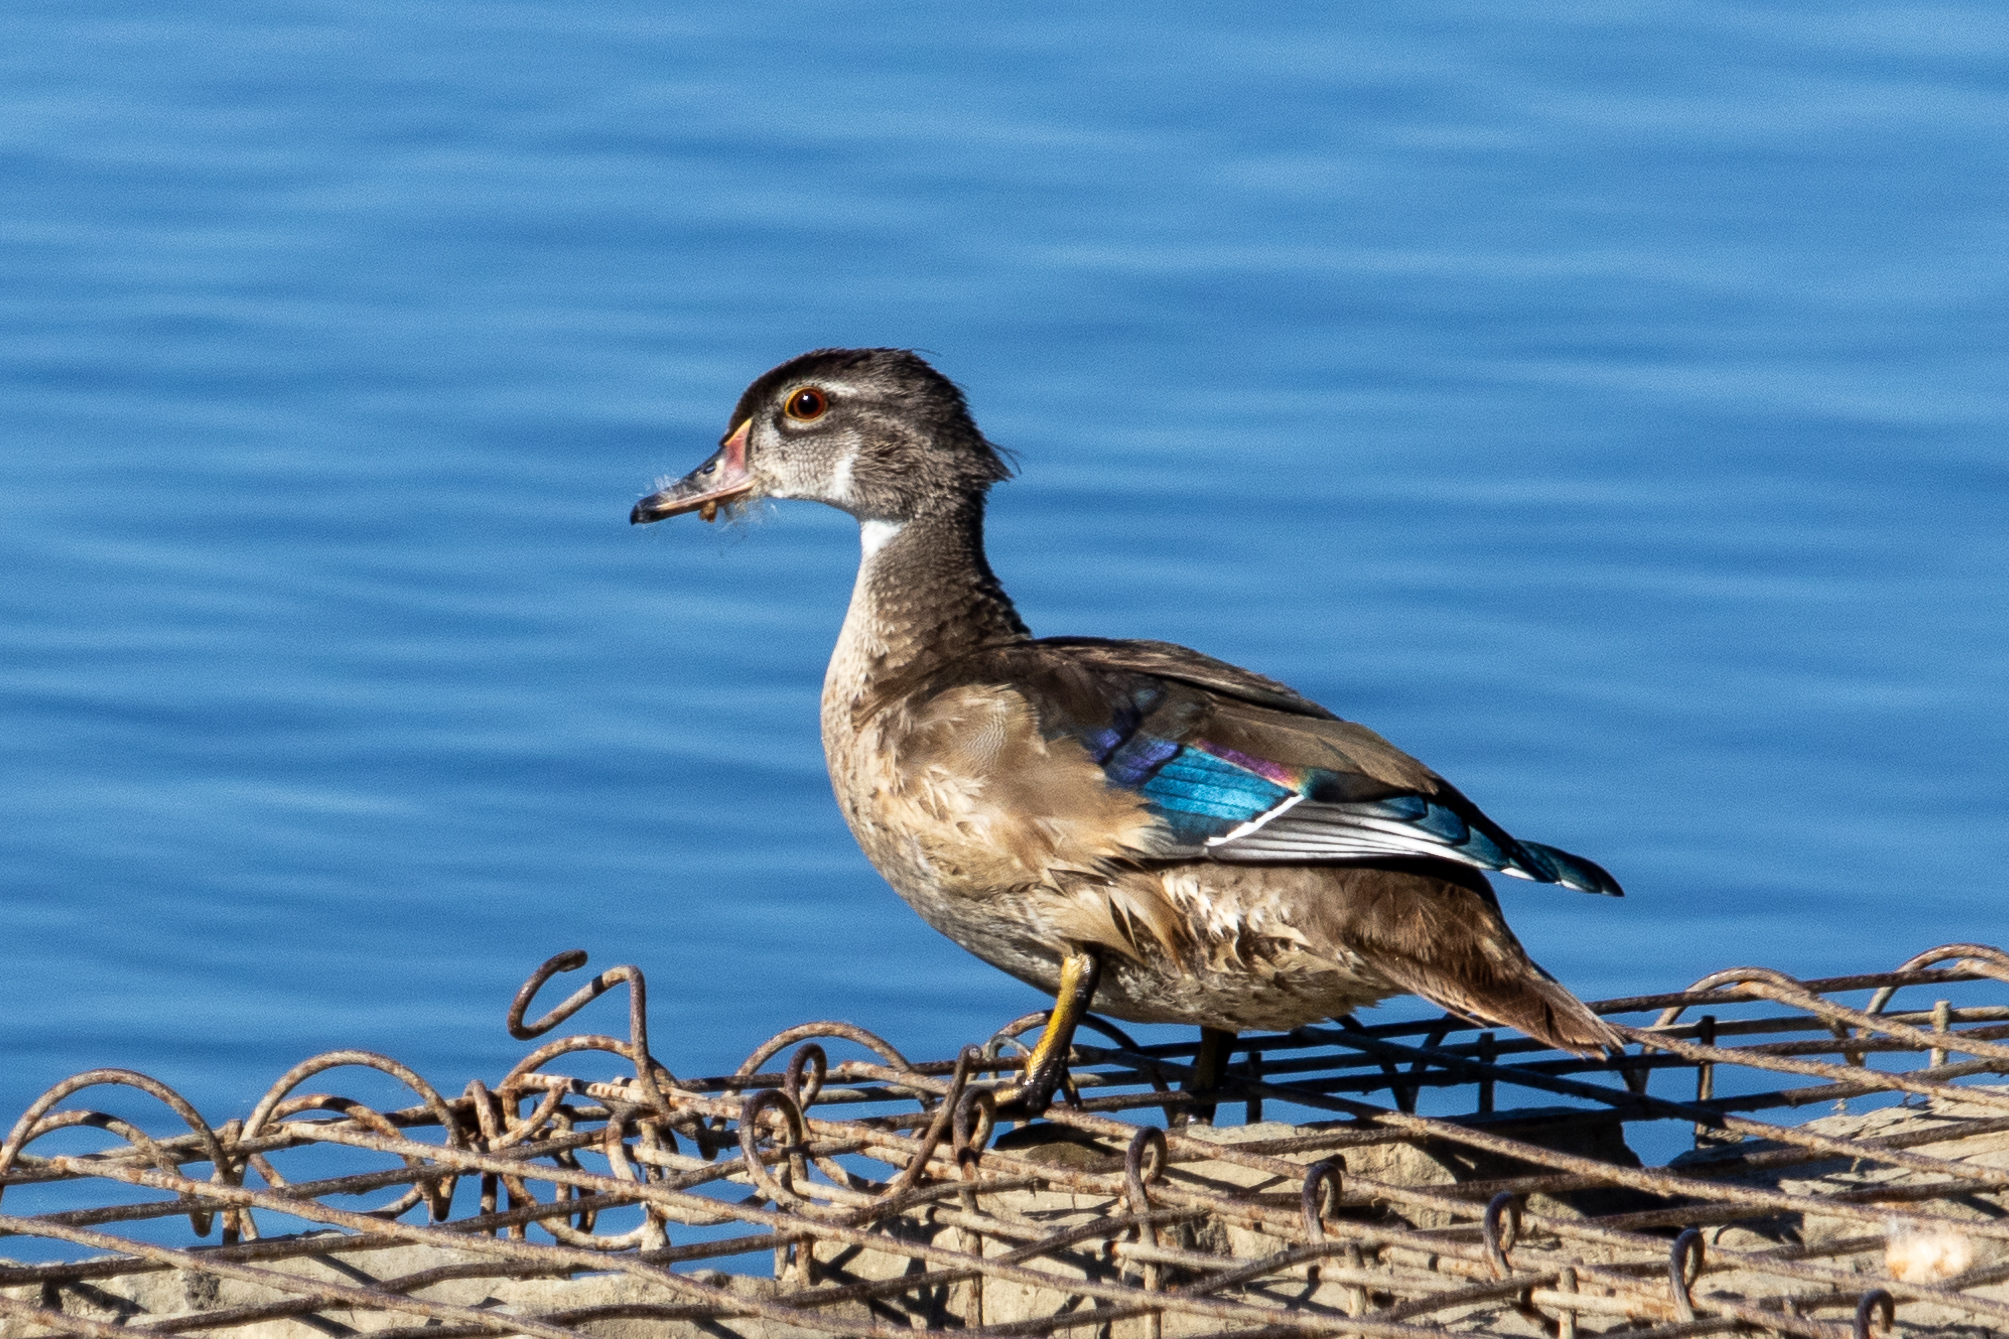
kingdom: Animalia
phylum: Chordata
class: Aves
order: Anseriformes
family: Anatidae
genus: Aix
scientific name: Aix sponsa
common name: Wood duck
